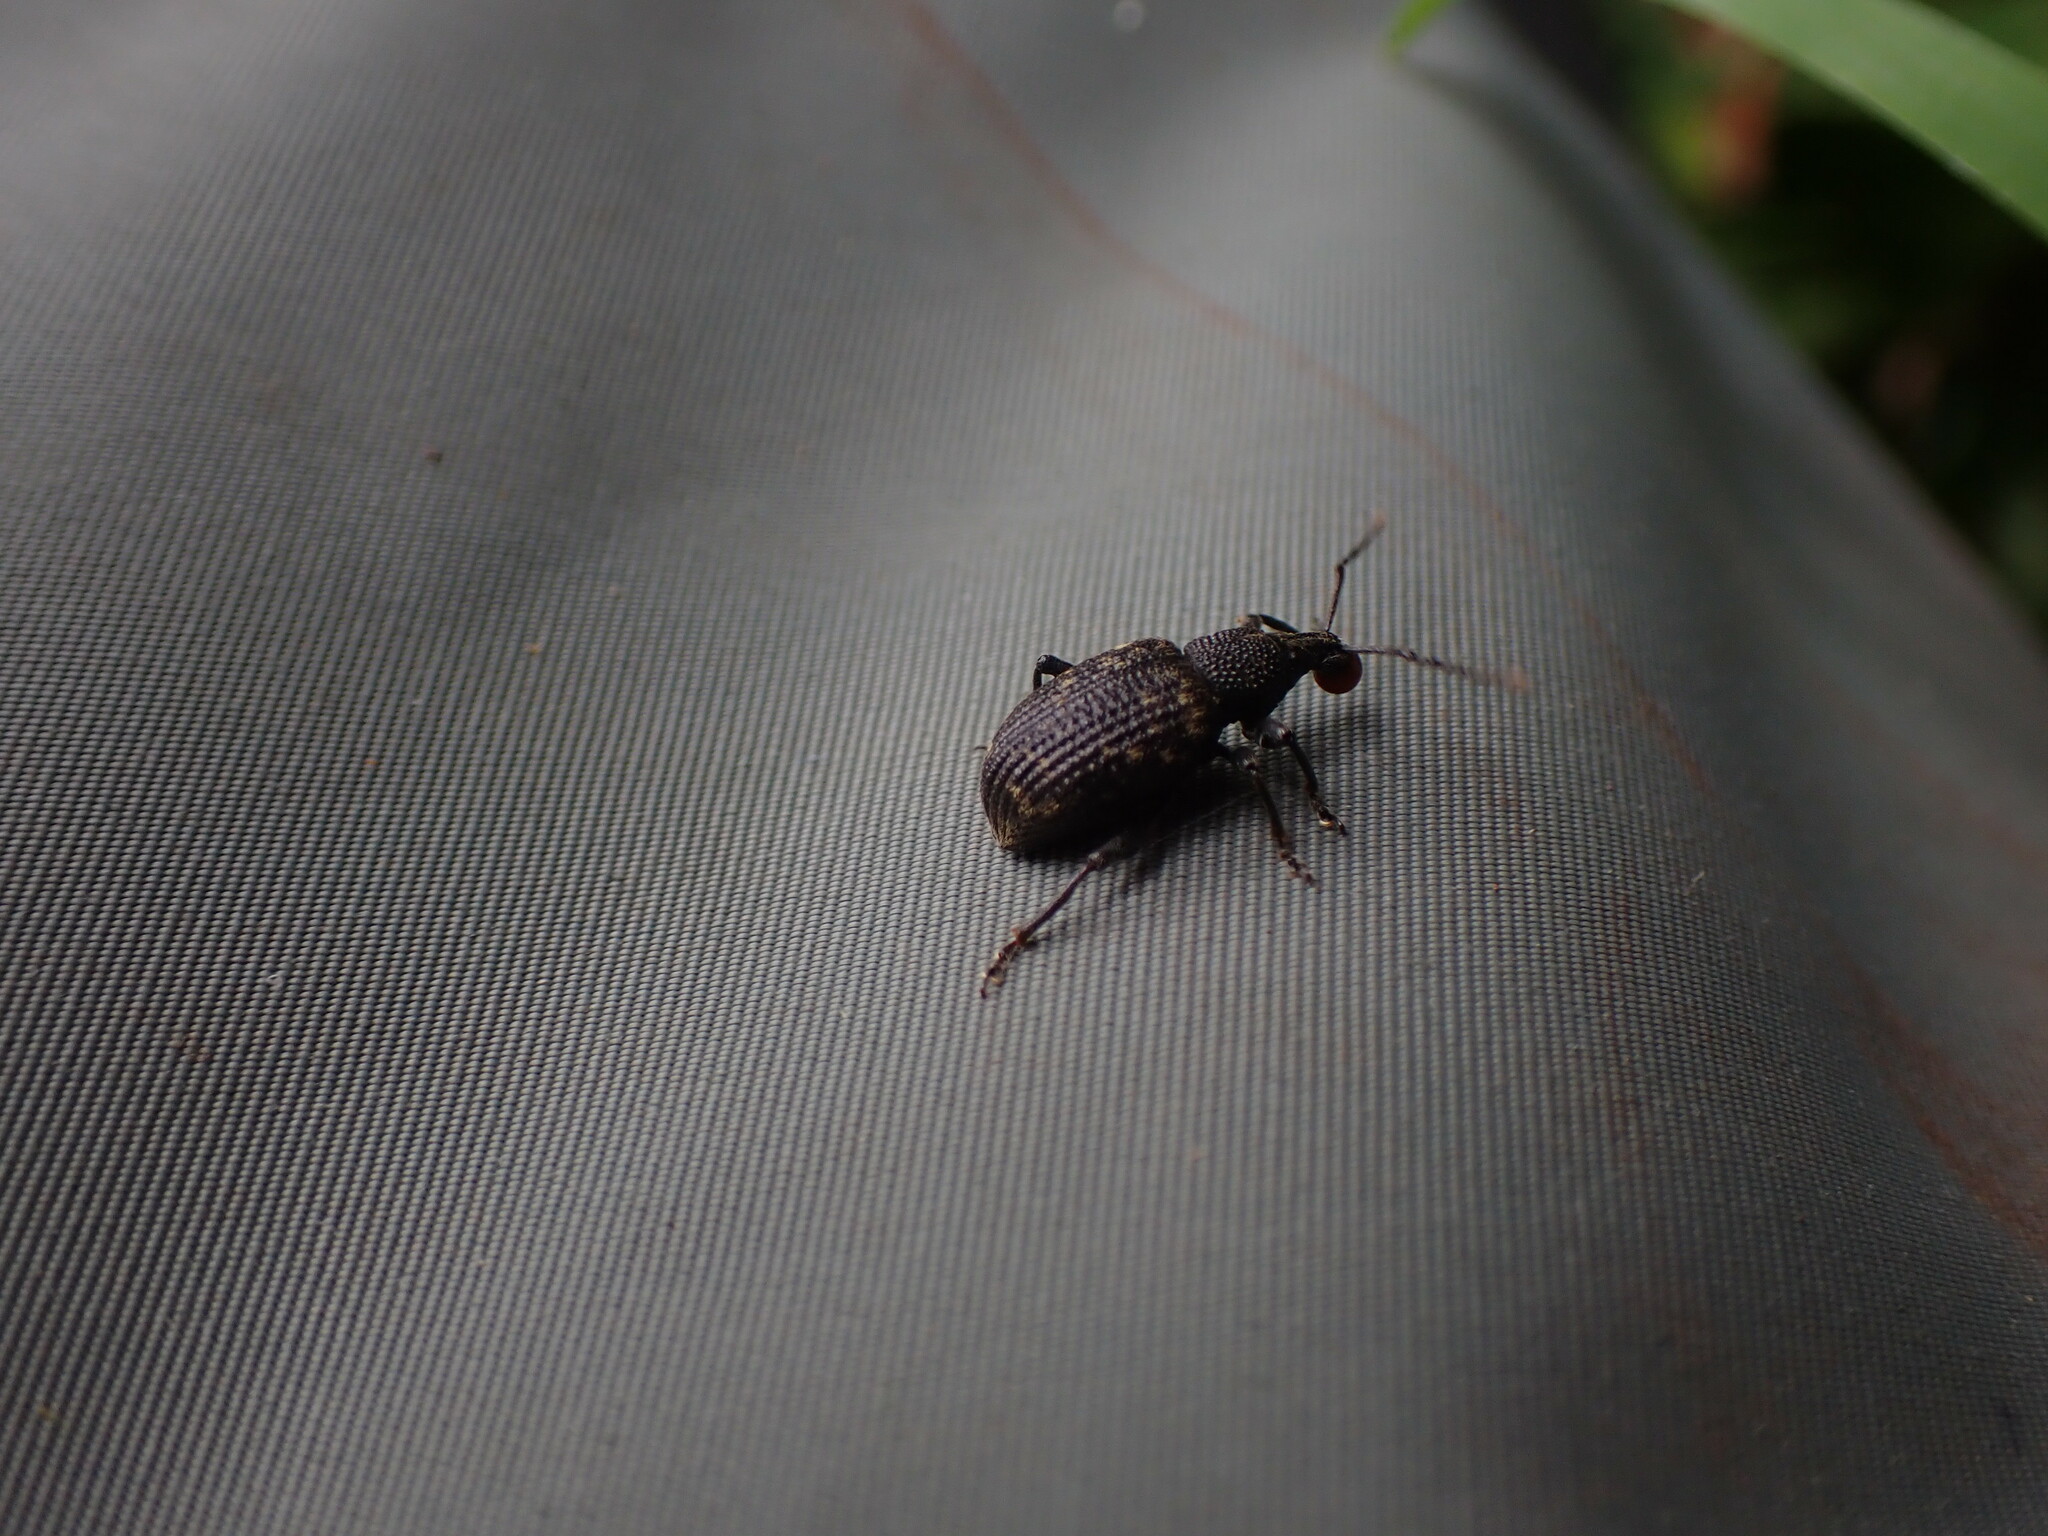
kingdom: Animalia
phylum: Arthropoda
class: Insecta
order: Coleoptera
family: Curculionidae
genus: Otiorhynchus
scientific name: Otiorhynchus sulcatus
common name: Black vine weevil
